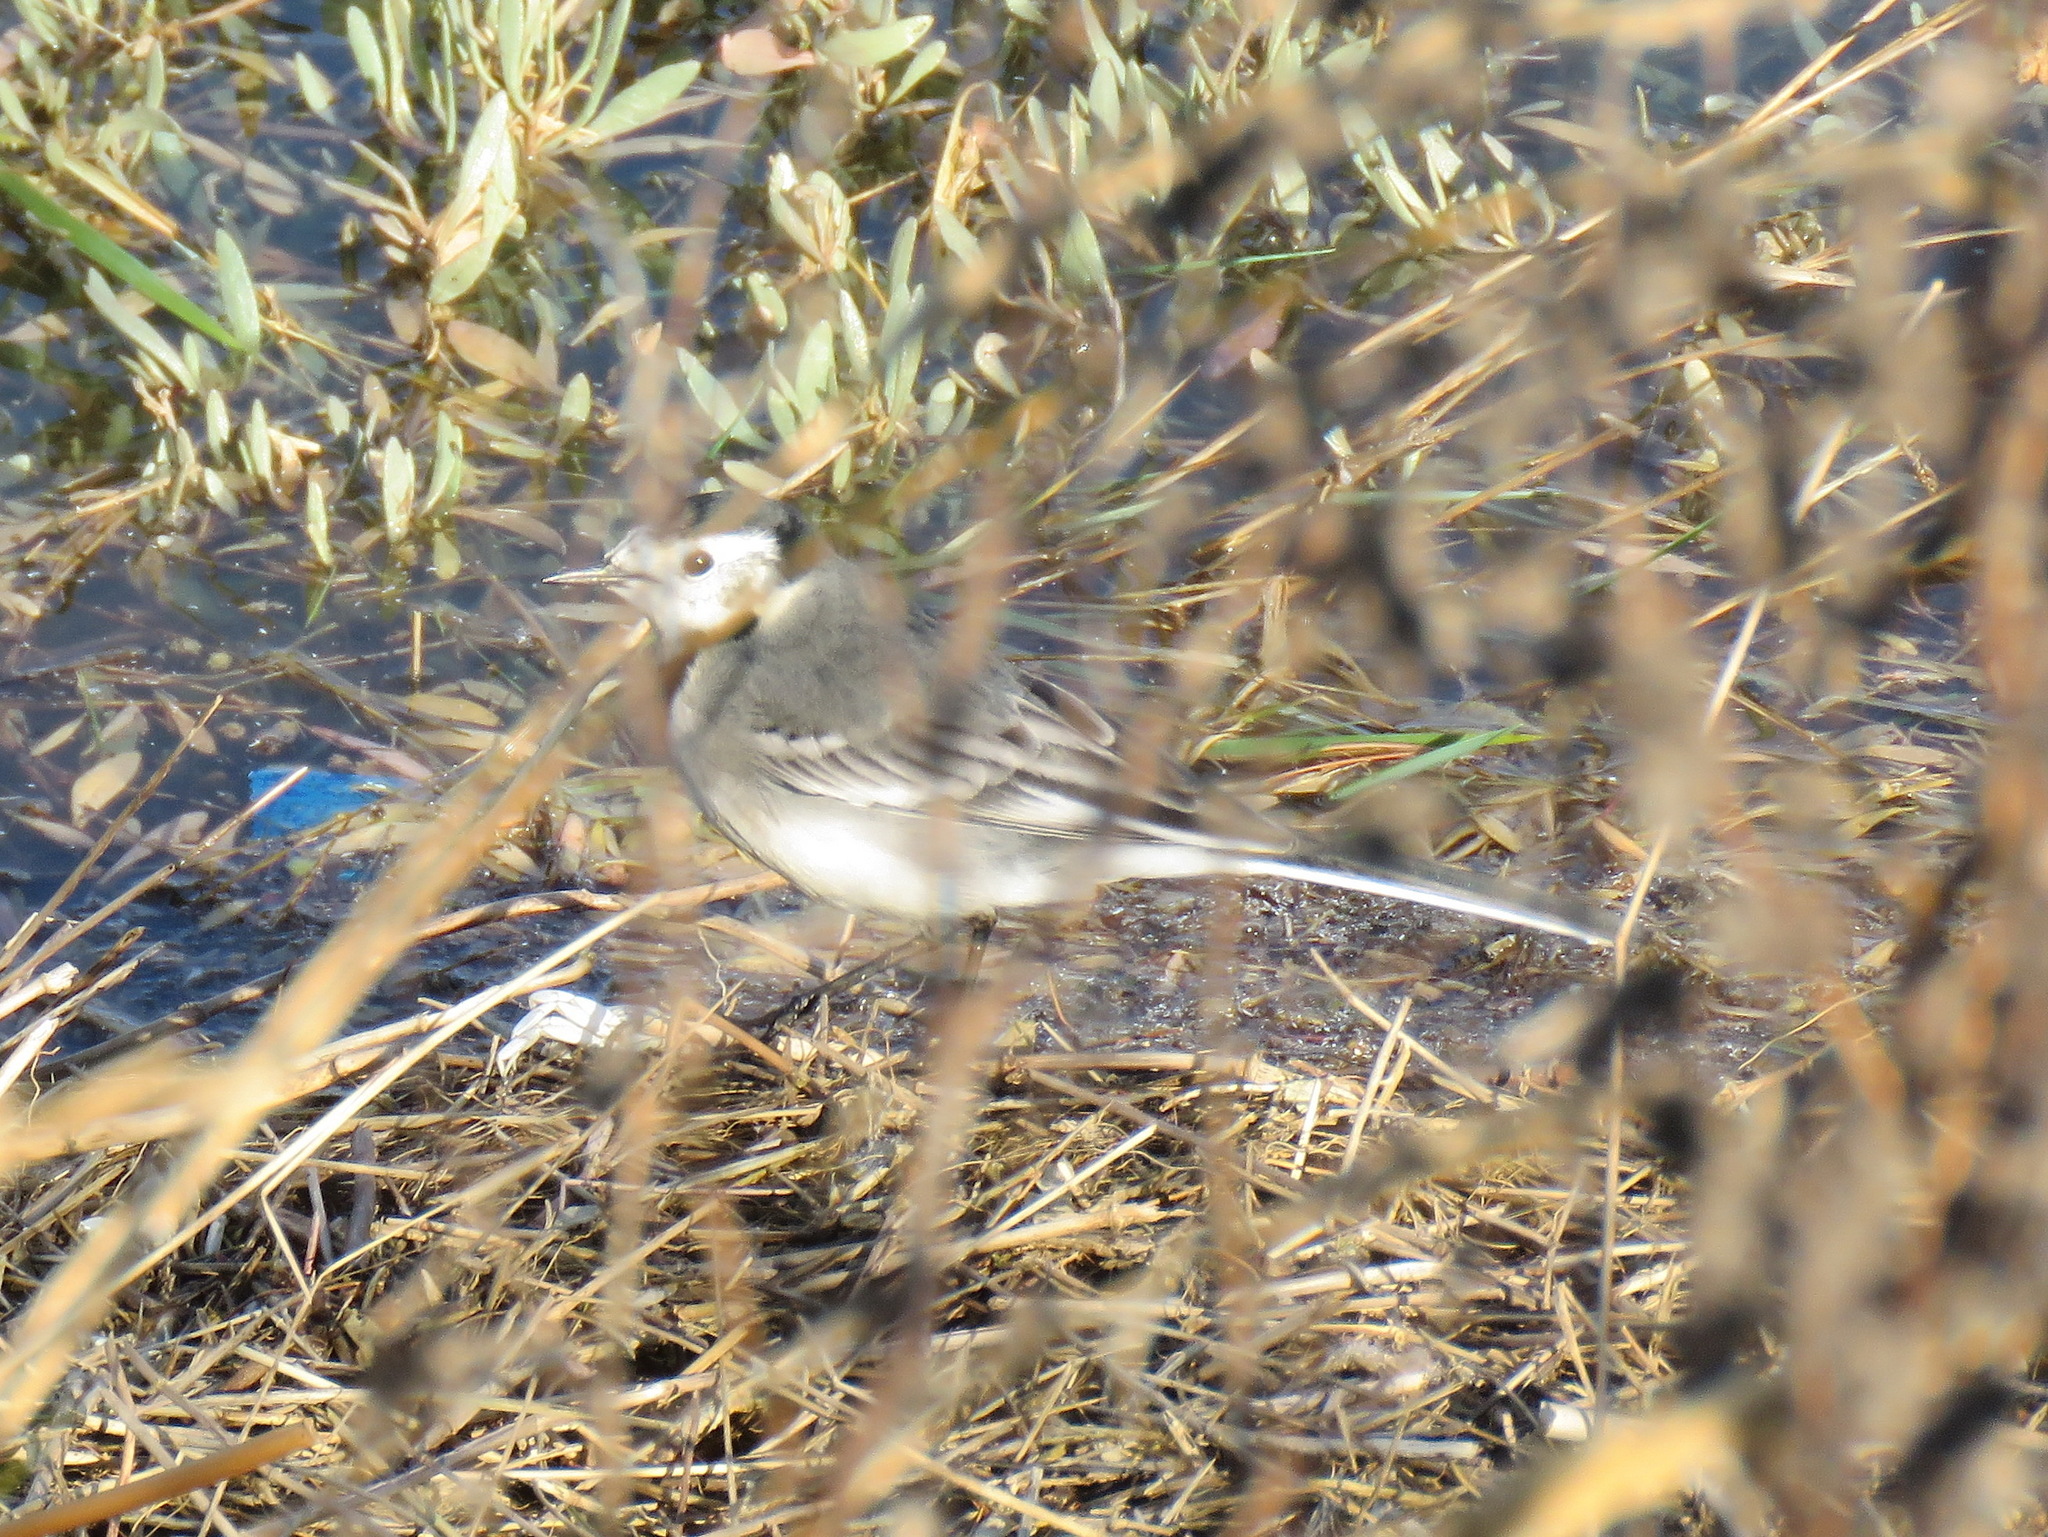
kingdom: Animalia
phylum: Chordata
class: Aves
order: Passeriformes
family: Motacillidae
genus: Motacilla
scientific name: Motacilla alba
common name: White wagtail
